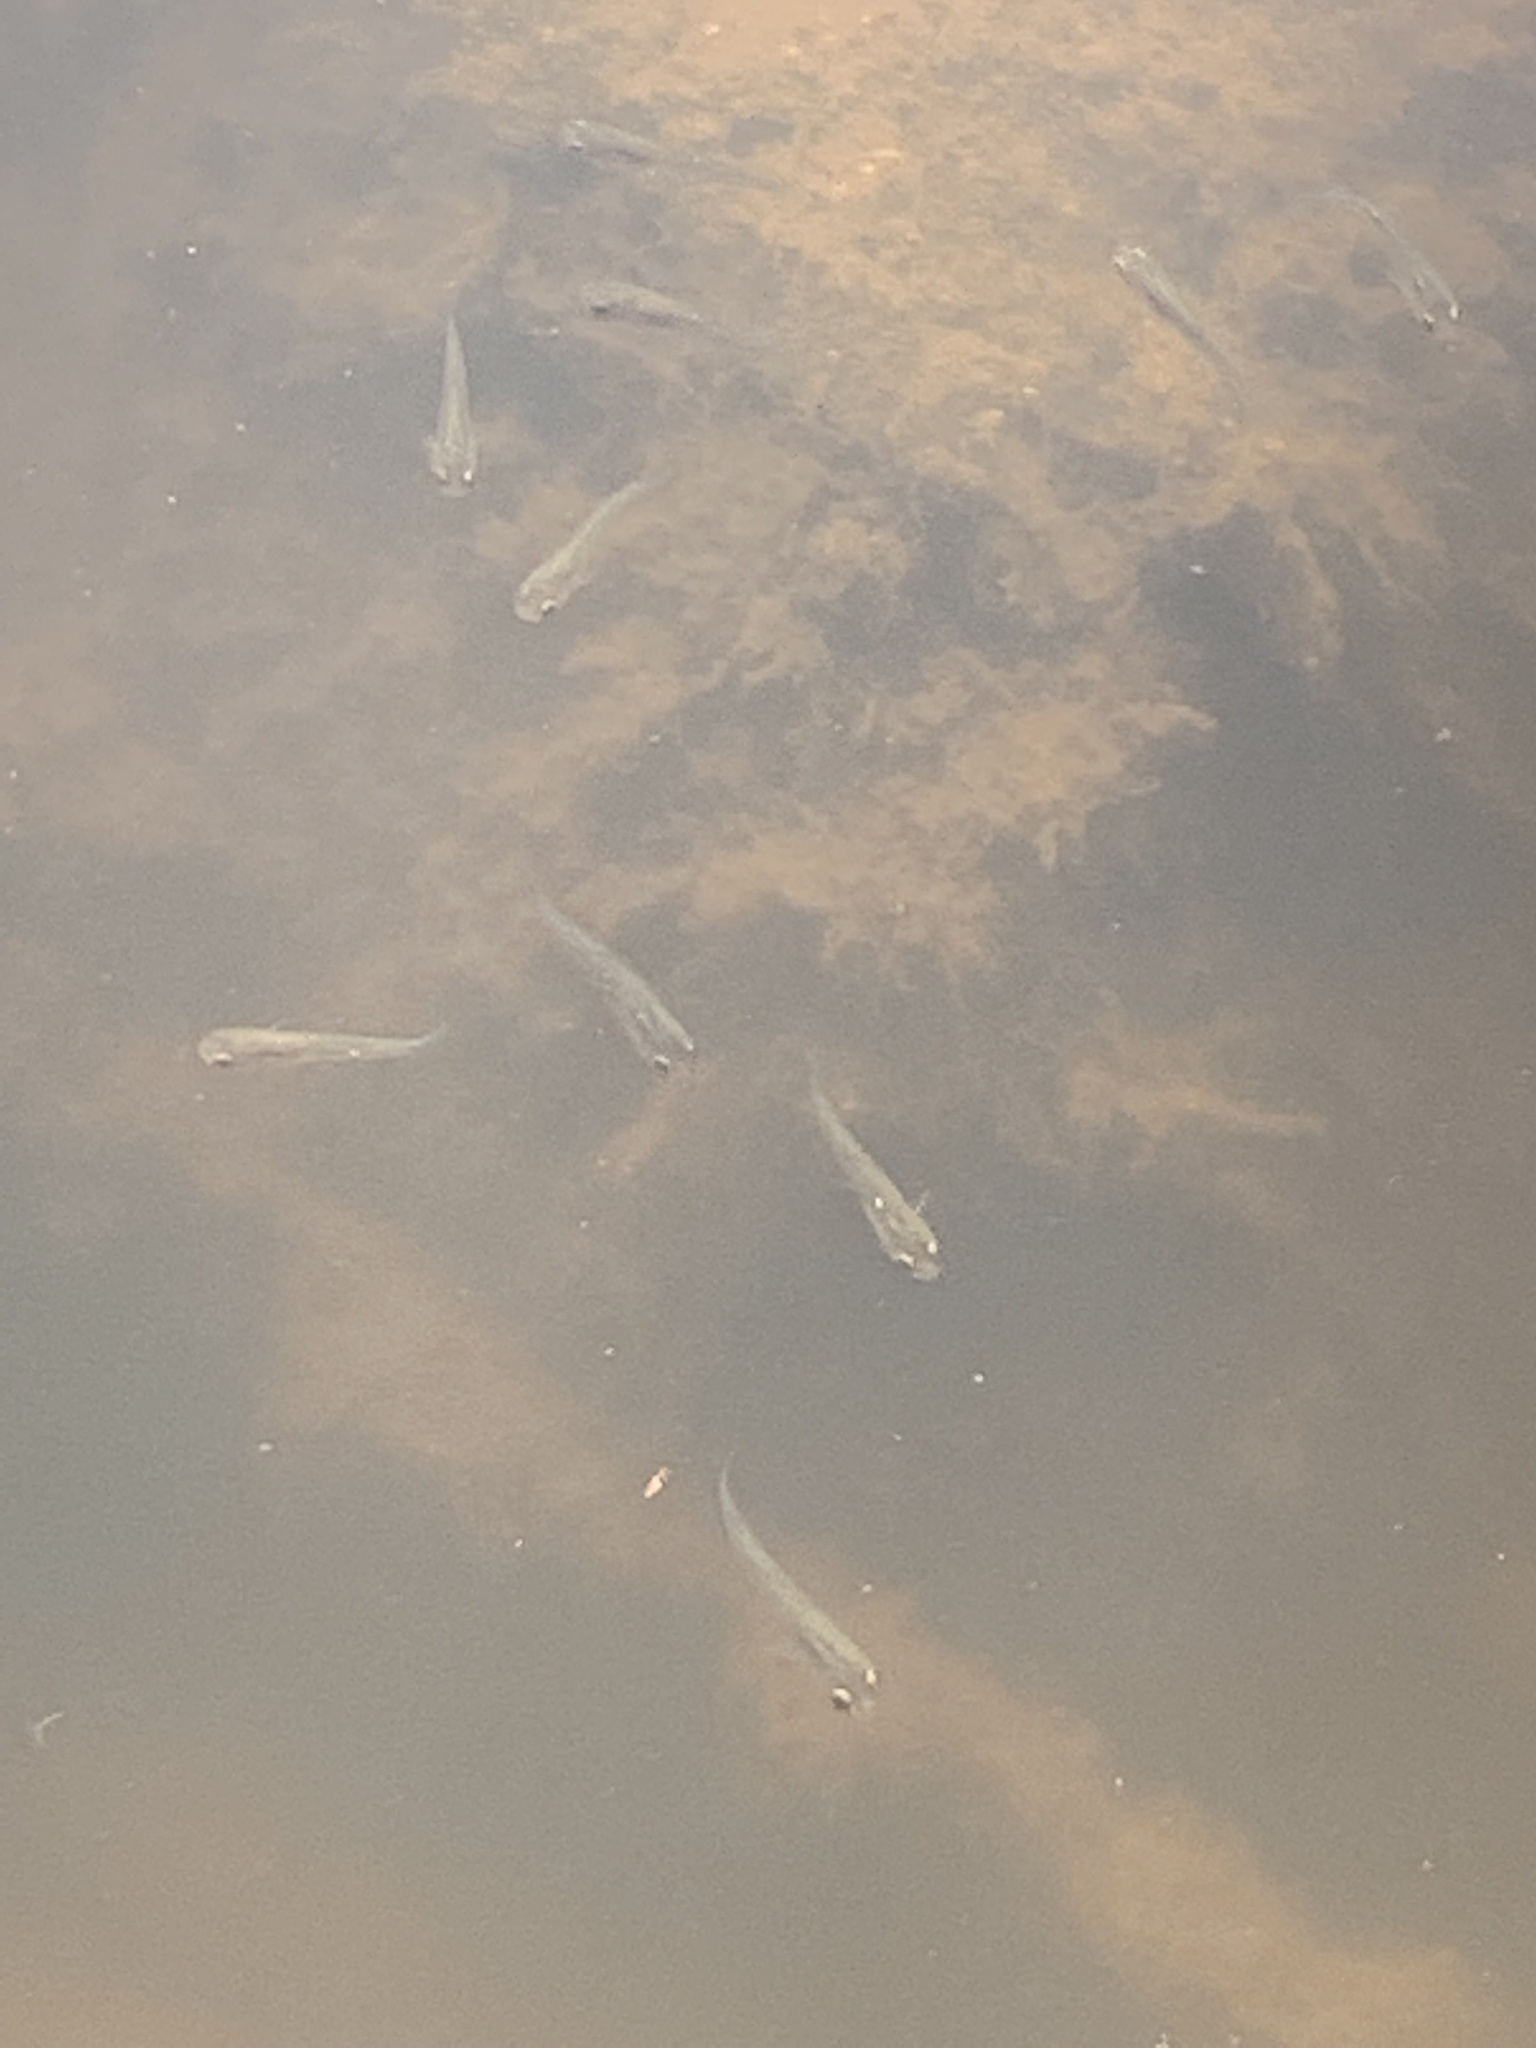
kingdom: Animalia
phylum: Chordata
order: Cyprinodontiformes
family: Poeciliidae
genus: Gambusia
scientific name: Gambusia holbrooki
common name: Eastern mosquitofish
